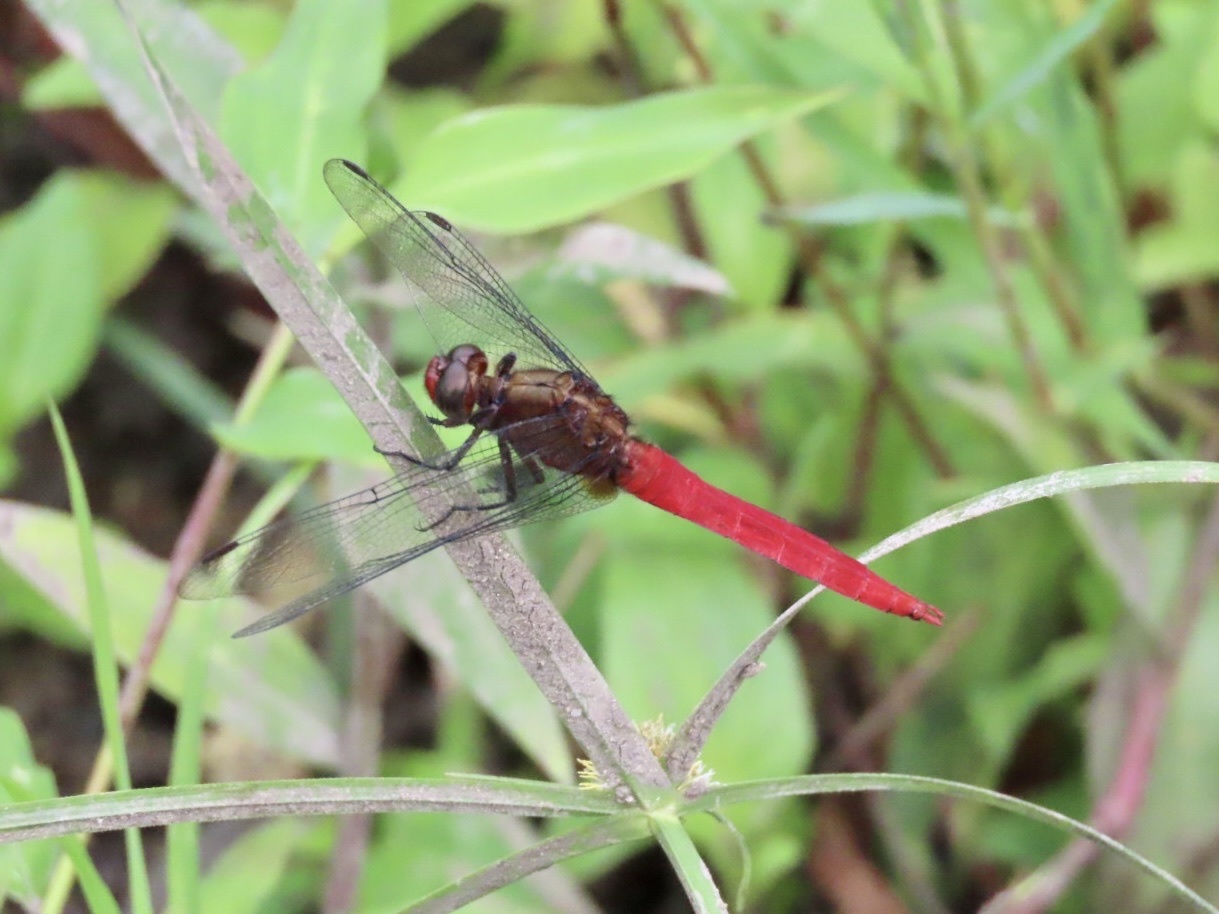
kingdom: Animalia
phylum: Arthropoda
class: Insecta
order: Odonata
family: Libellulidae
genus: Orthetrum
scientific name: Orthetrum chrysis
